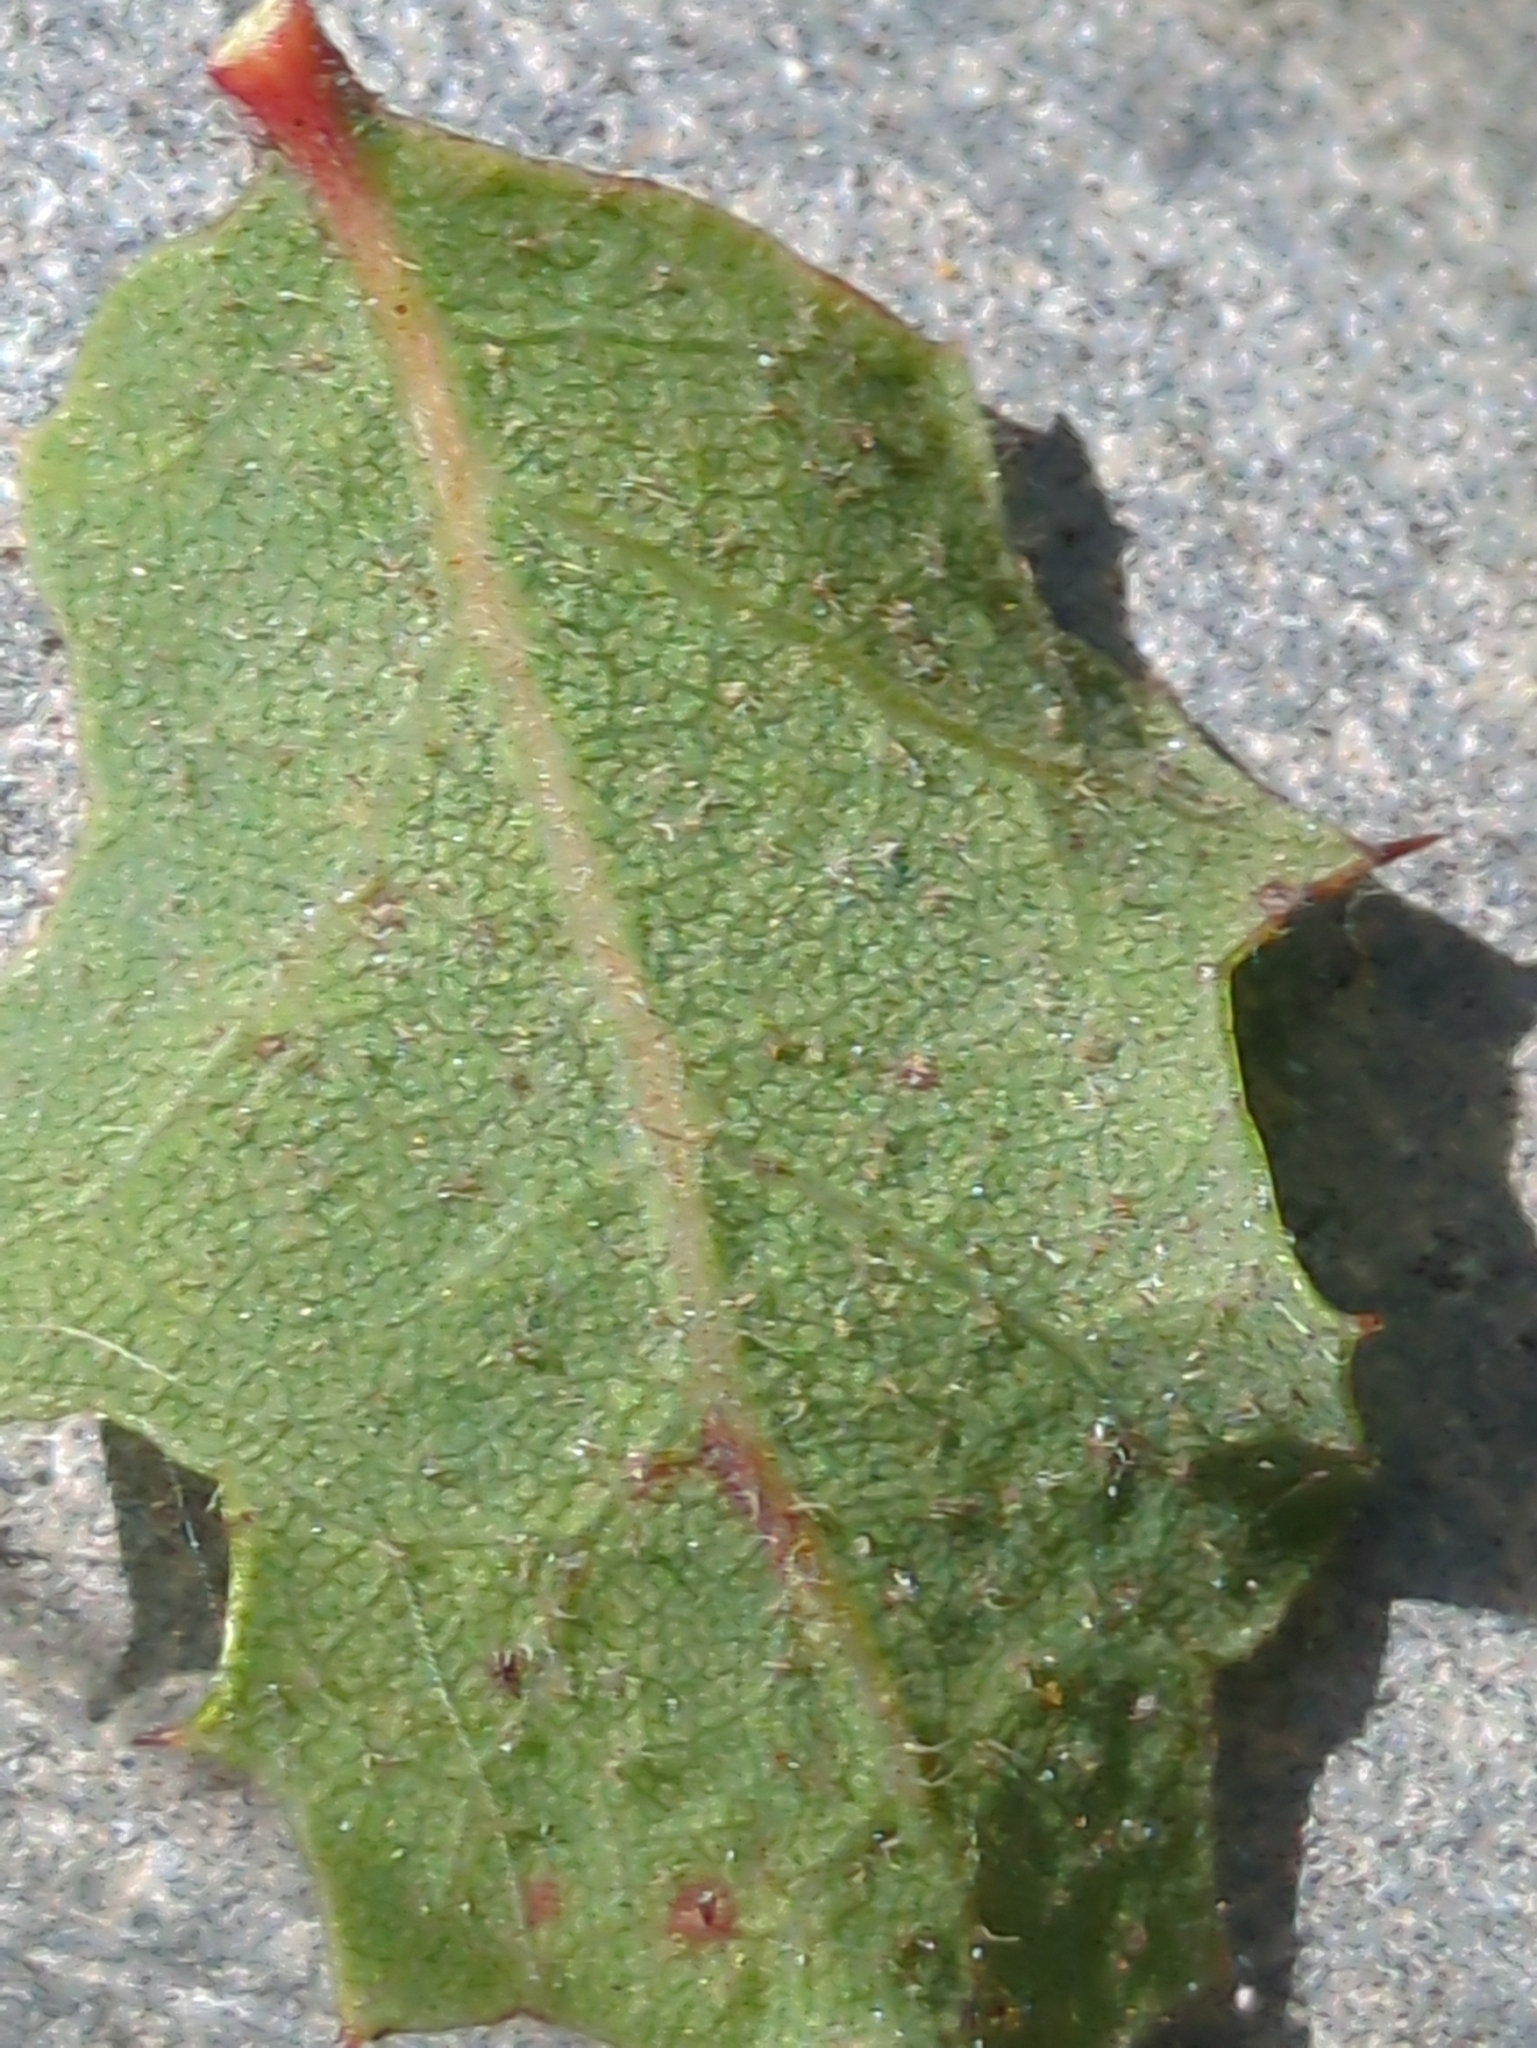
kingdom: Plantae
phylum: Tracheophyta
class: Magnoliopsida
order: Fagales
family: Fagaceae
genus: Quercus
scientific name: Quercus dumosa
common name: Coastal sage scrub oak
